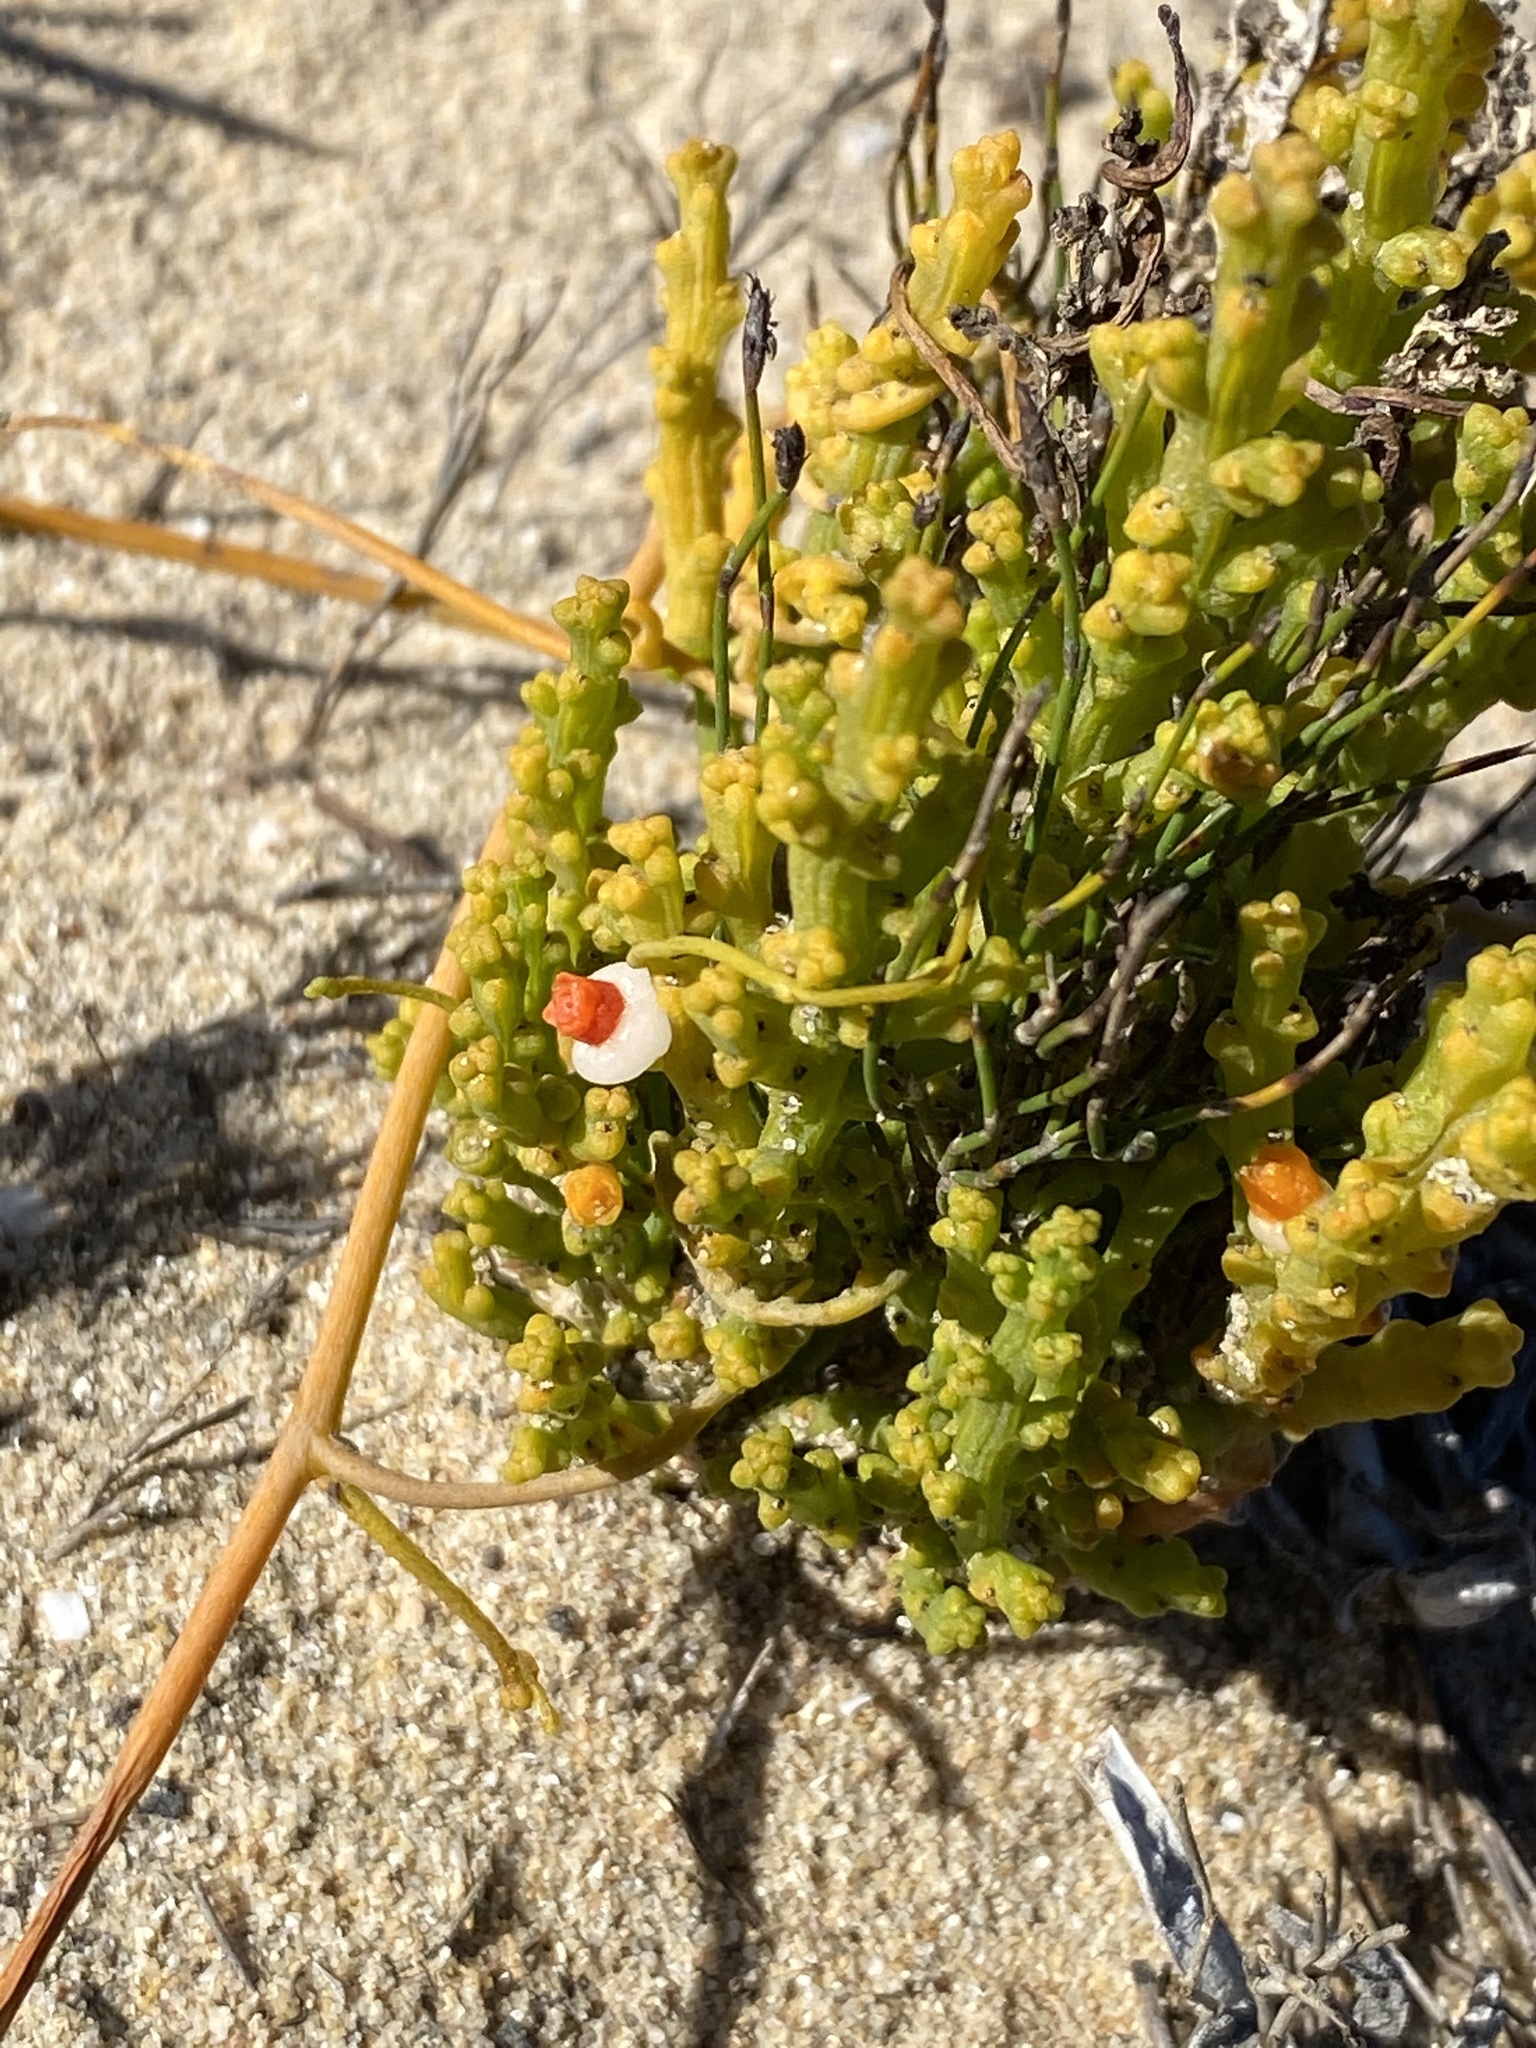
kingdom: Plantae
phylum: Tracheophyta
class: Magnoliopsida
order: Santalales
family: Thesiaceae
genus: Thesium
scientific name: Thesium fragile
